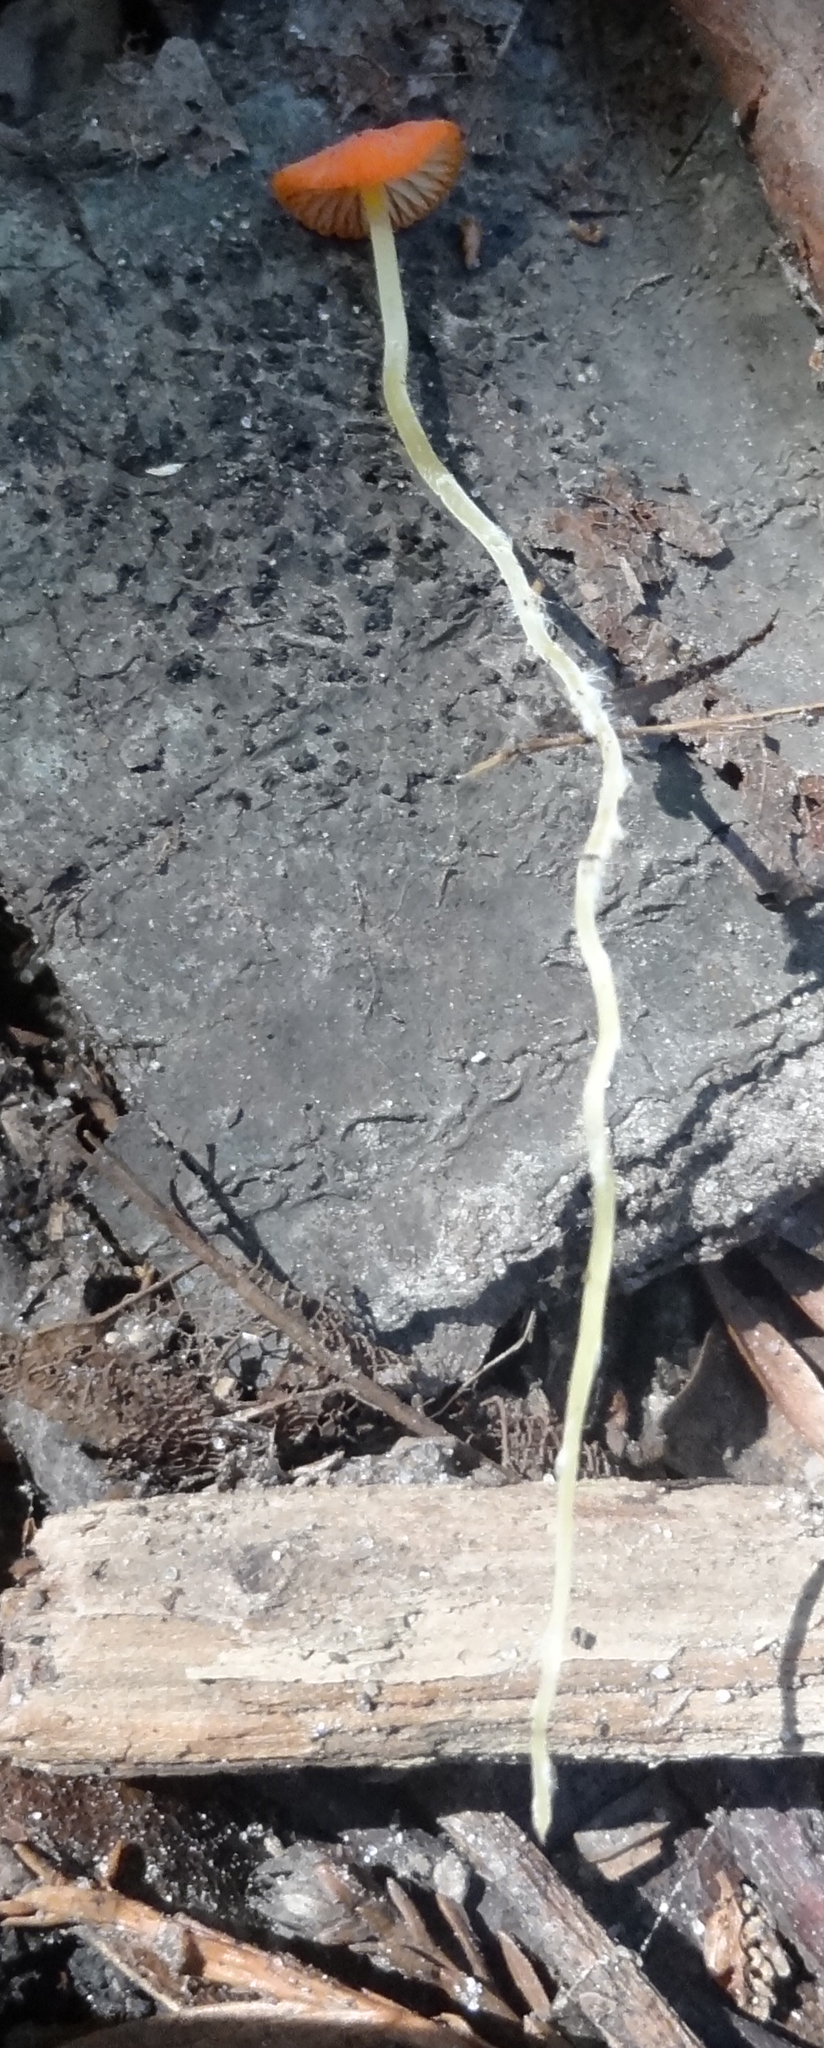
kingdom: Fungi
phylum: Basidiomycota
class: Agaricomycetes
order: Agaricales
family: Mycenaceae
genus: Mycena
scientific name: Mycena acicula
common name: Orange bonnet
